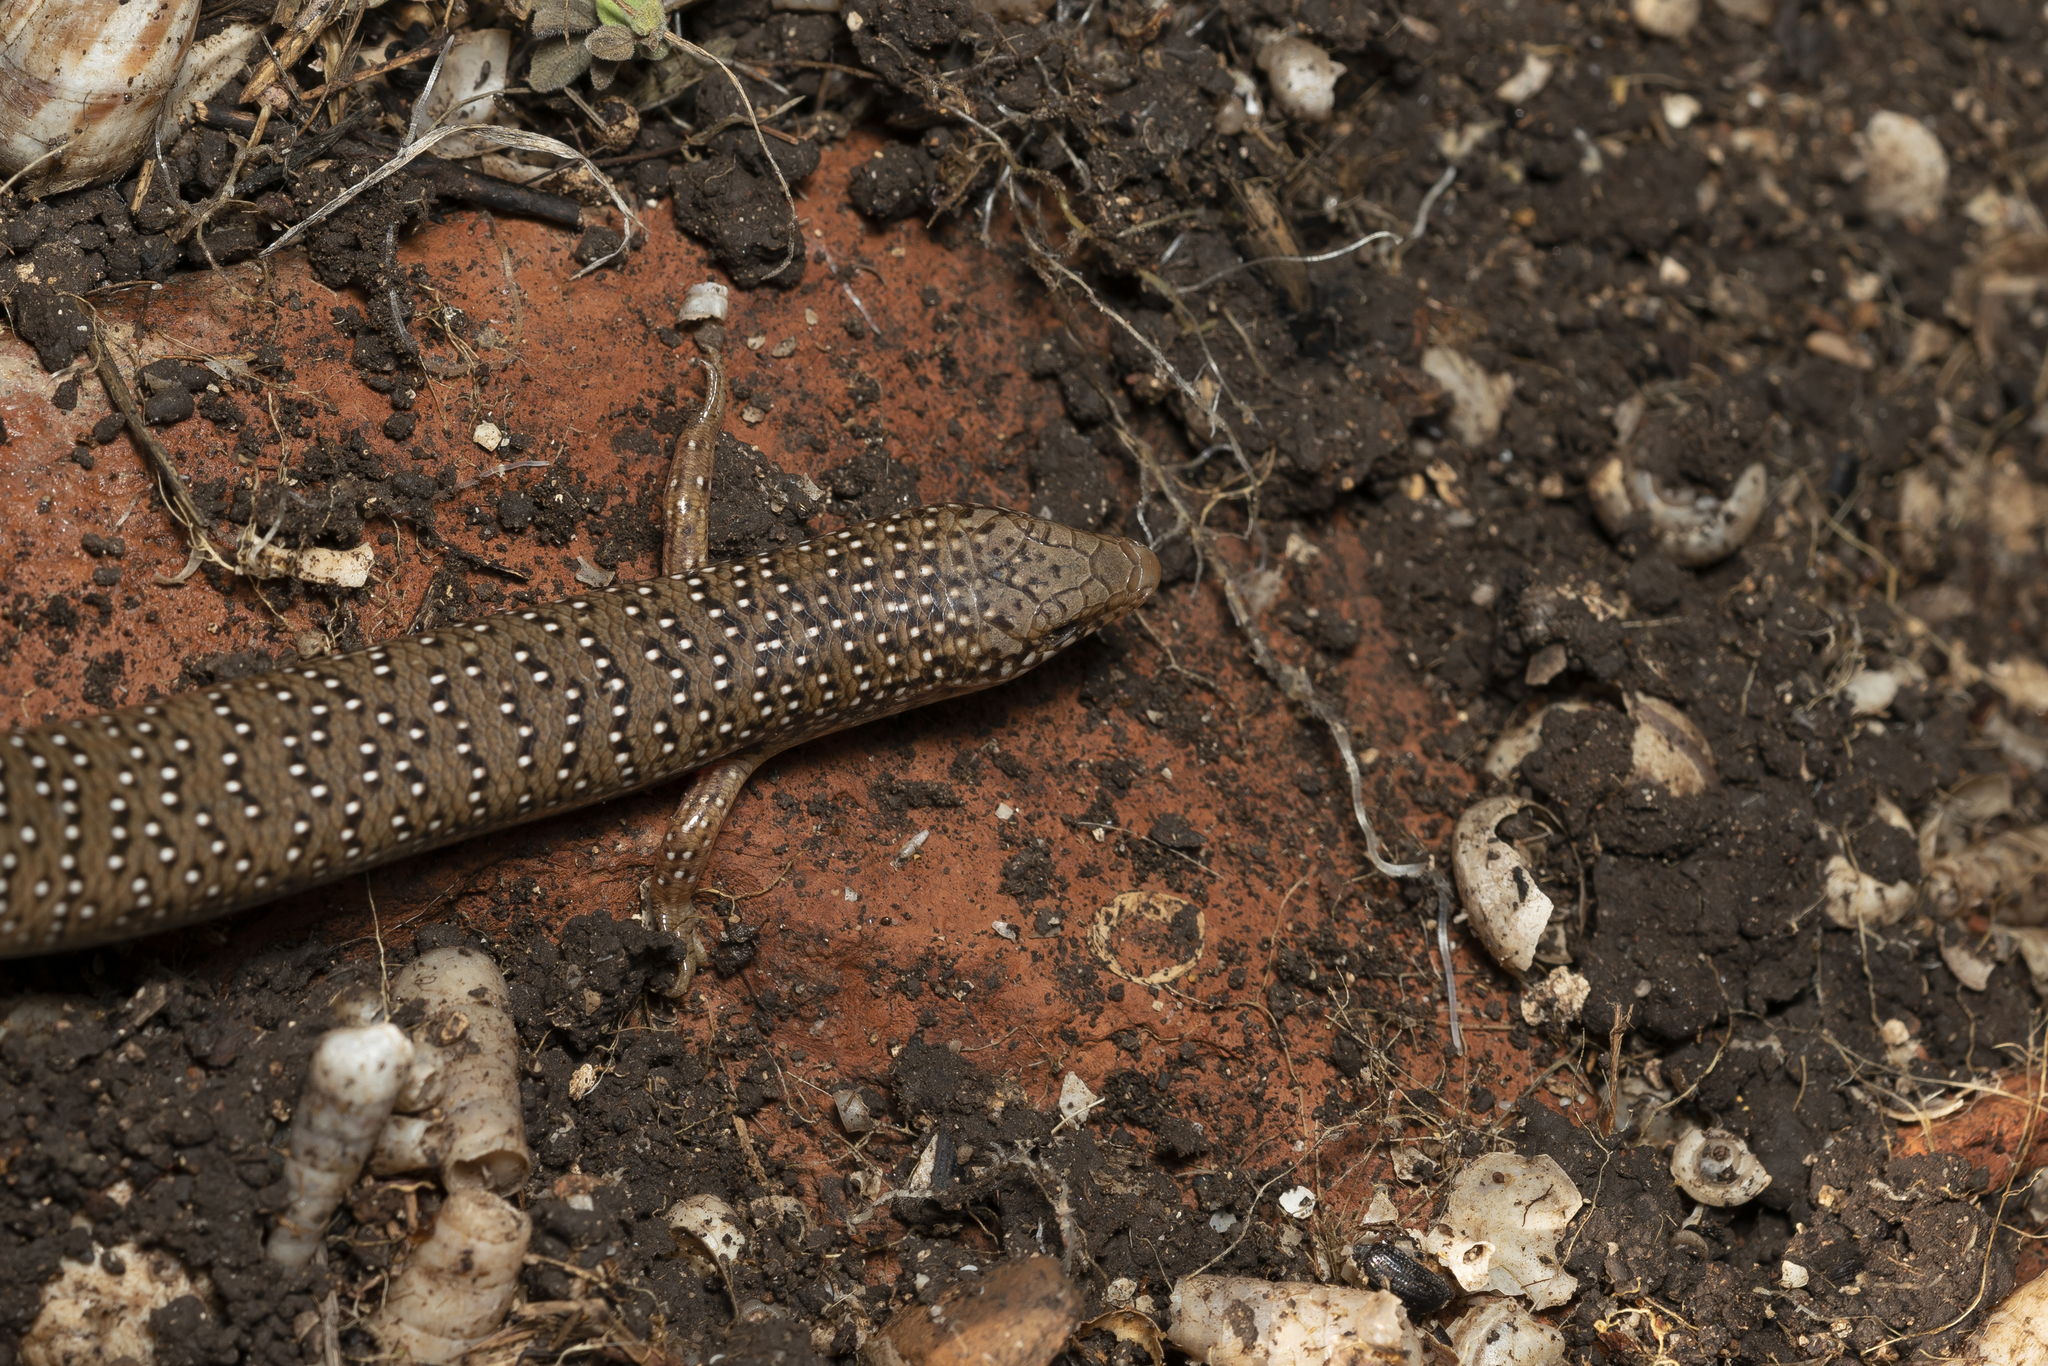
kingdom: Animalia
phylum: Chordata
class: Squamata
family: Scincidae
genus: Chalcides
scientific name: Chalcides ocellatus
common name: Ocellated skink
